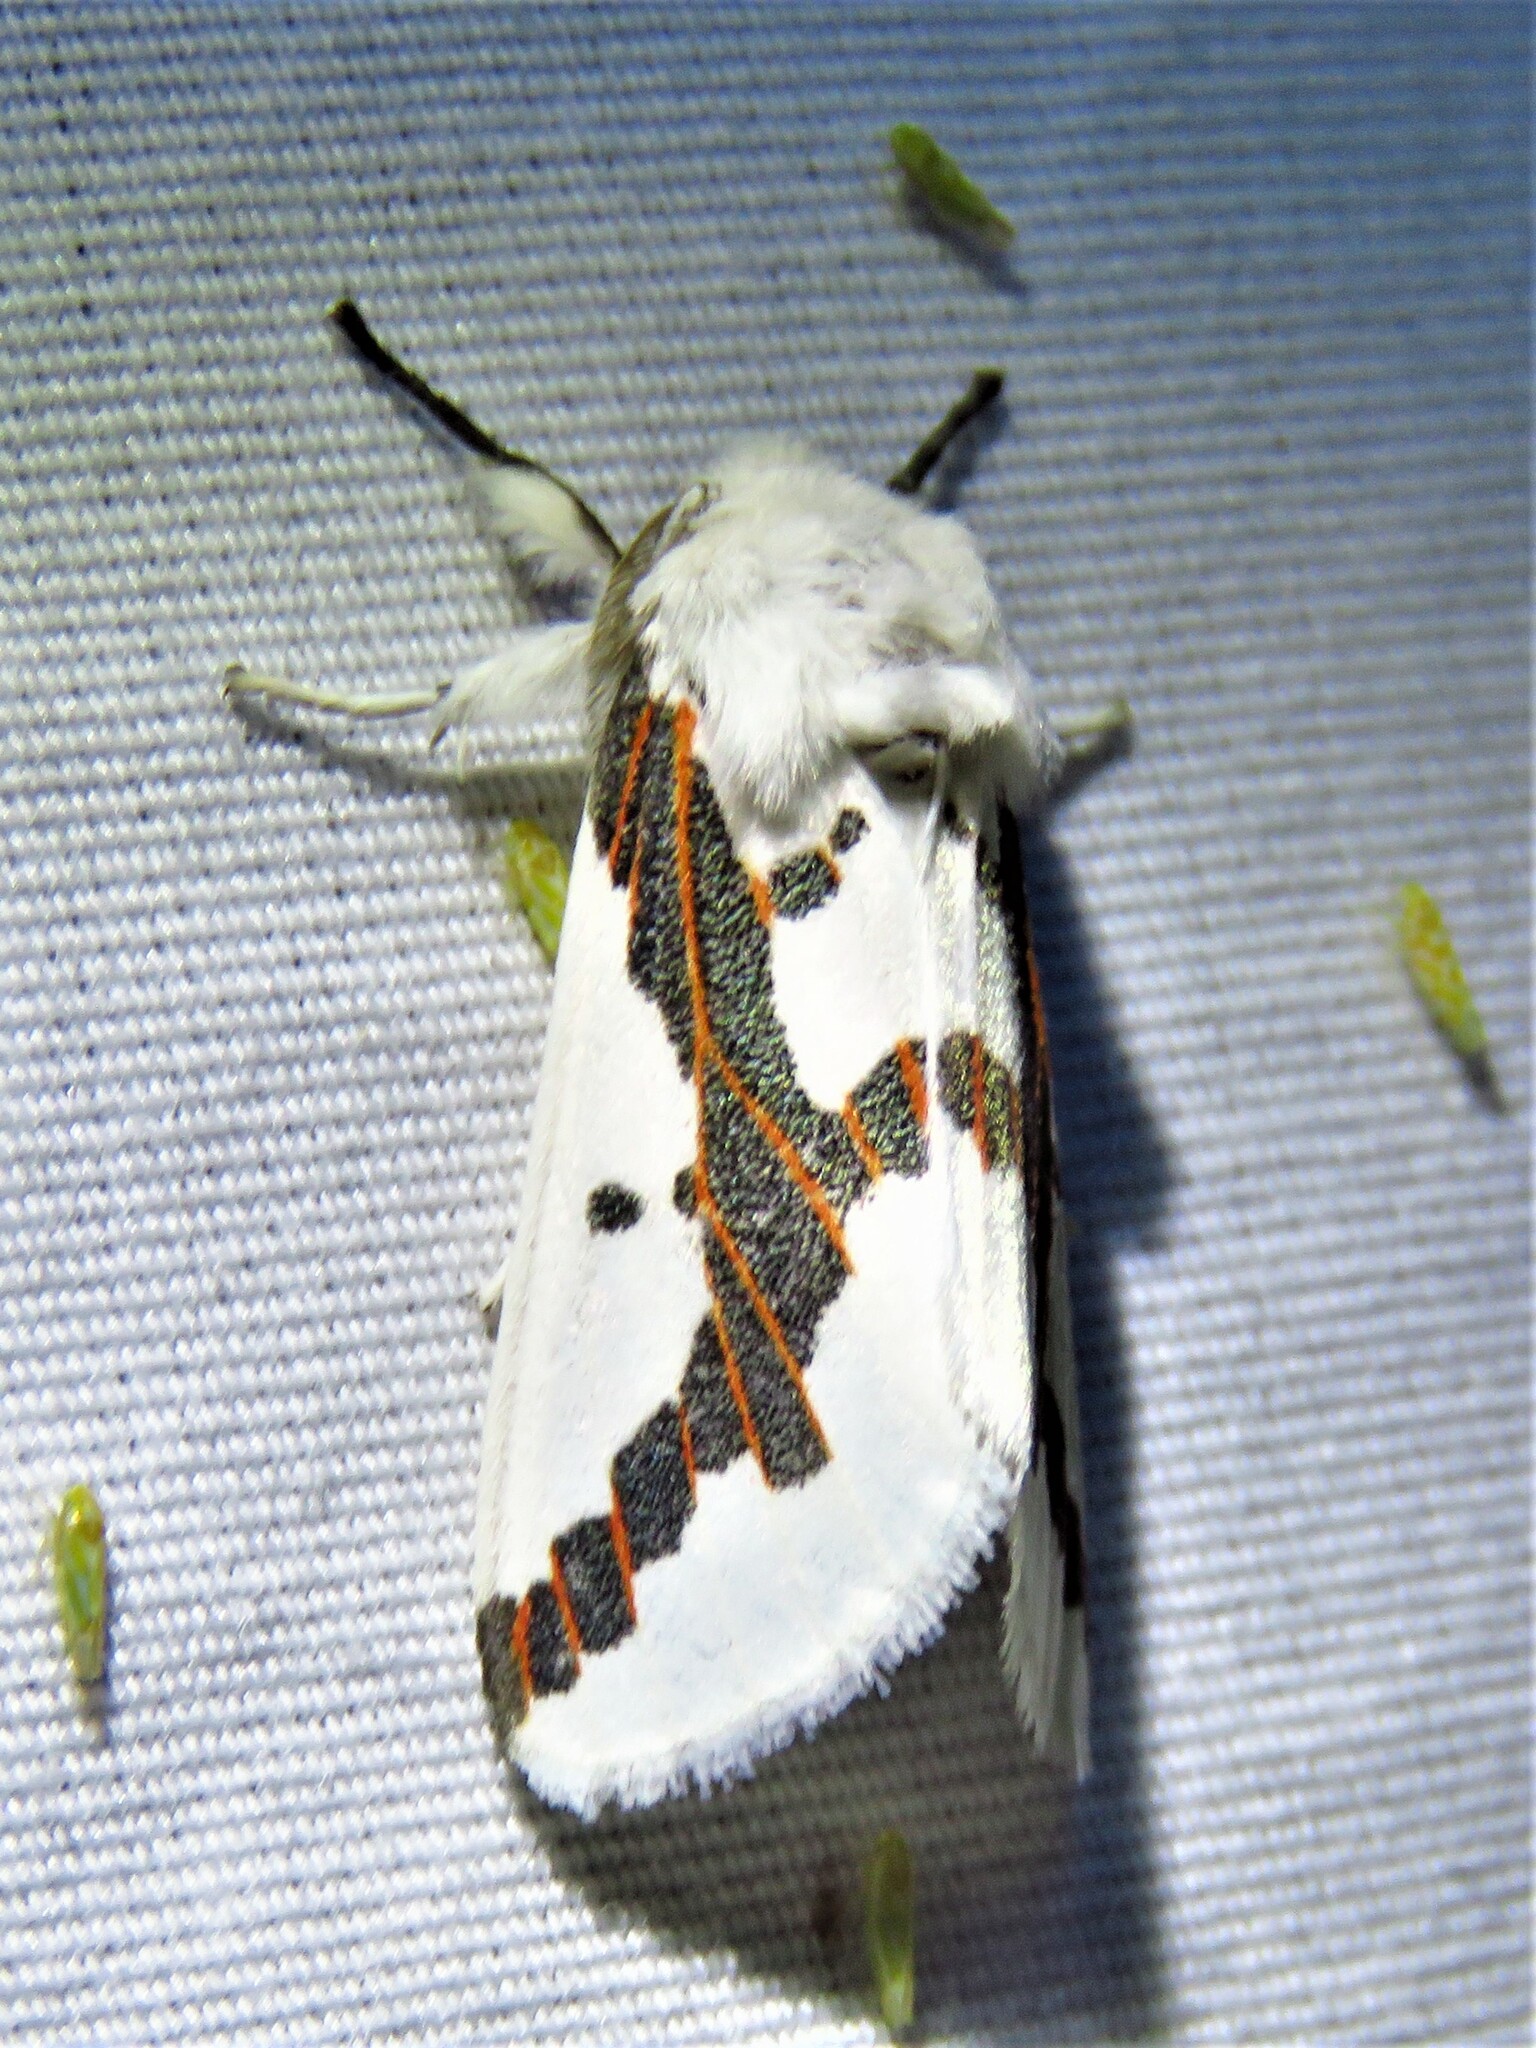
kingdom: Animalia
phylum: Arthropoda
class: Insecta
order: Lepidoptera
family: Erebidae
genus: Euerythra
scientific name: Euerythra phasma
